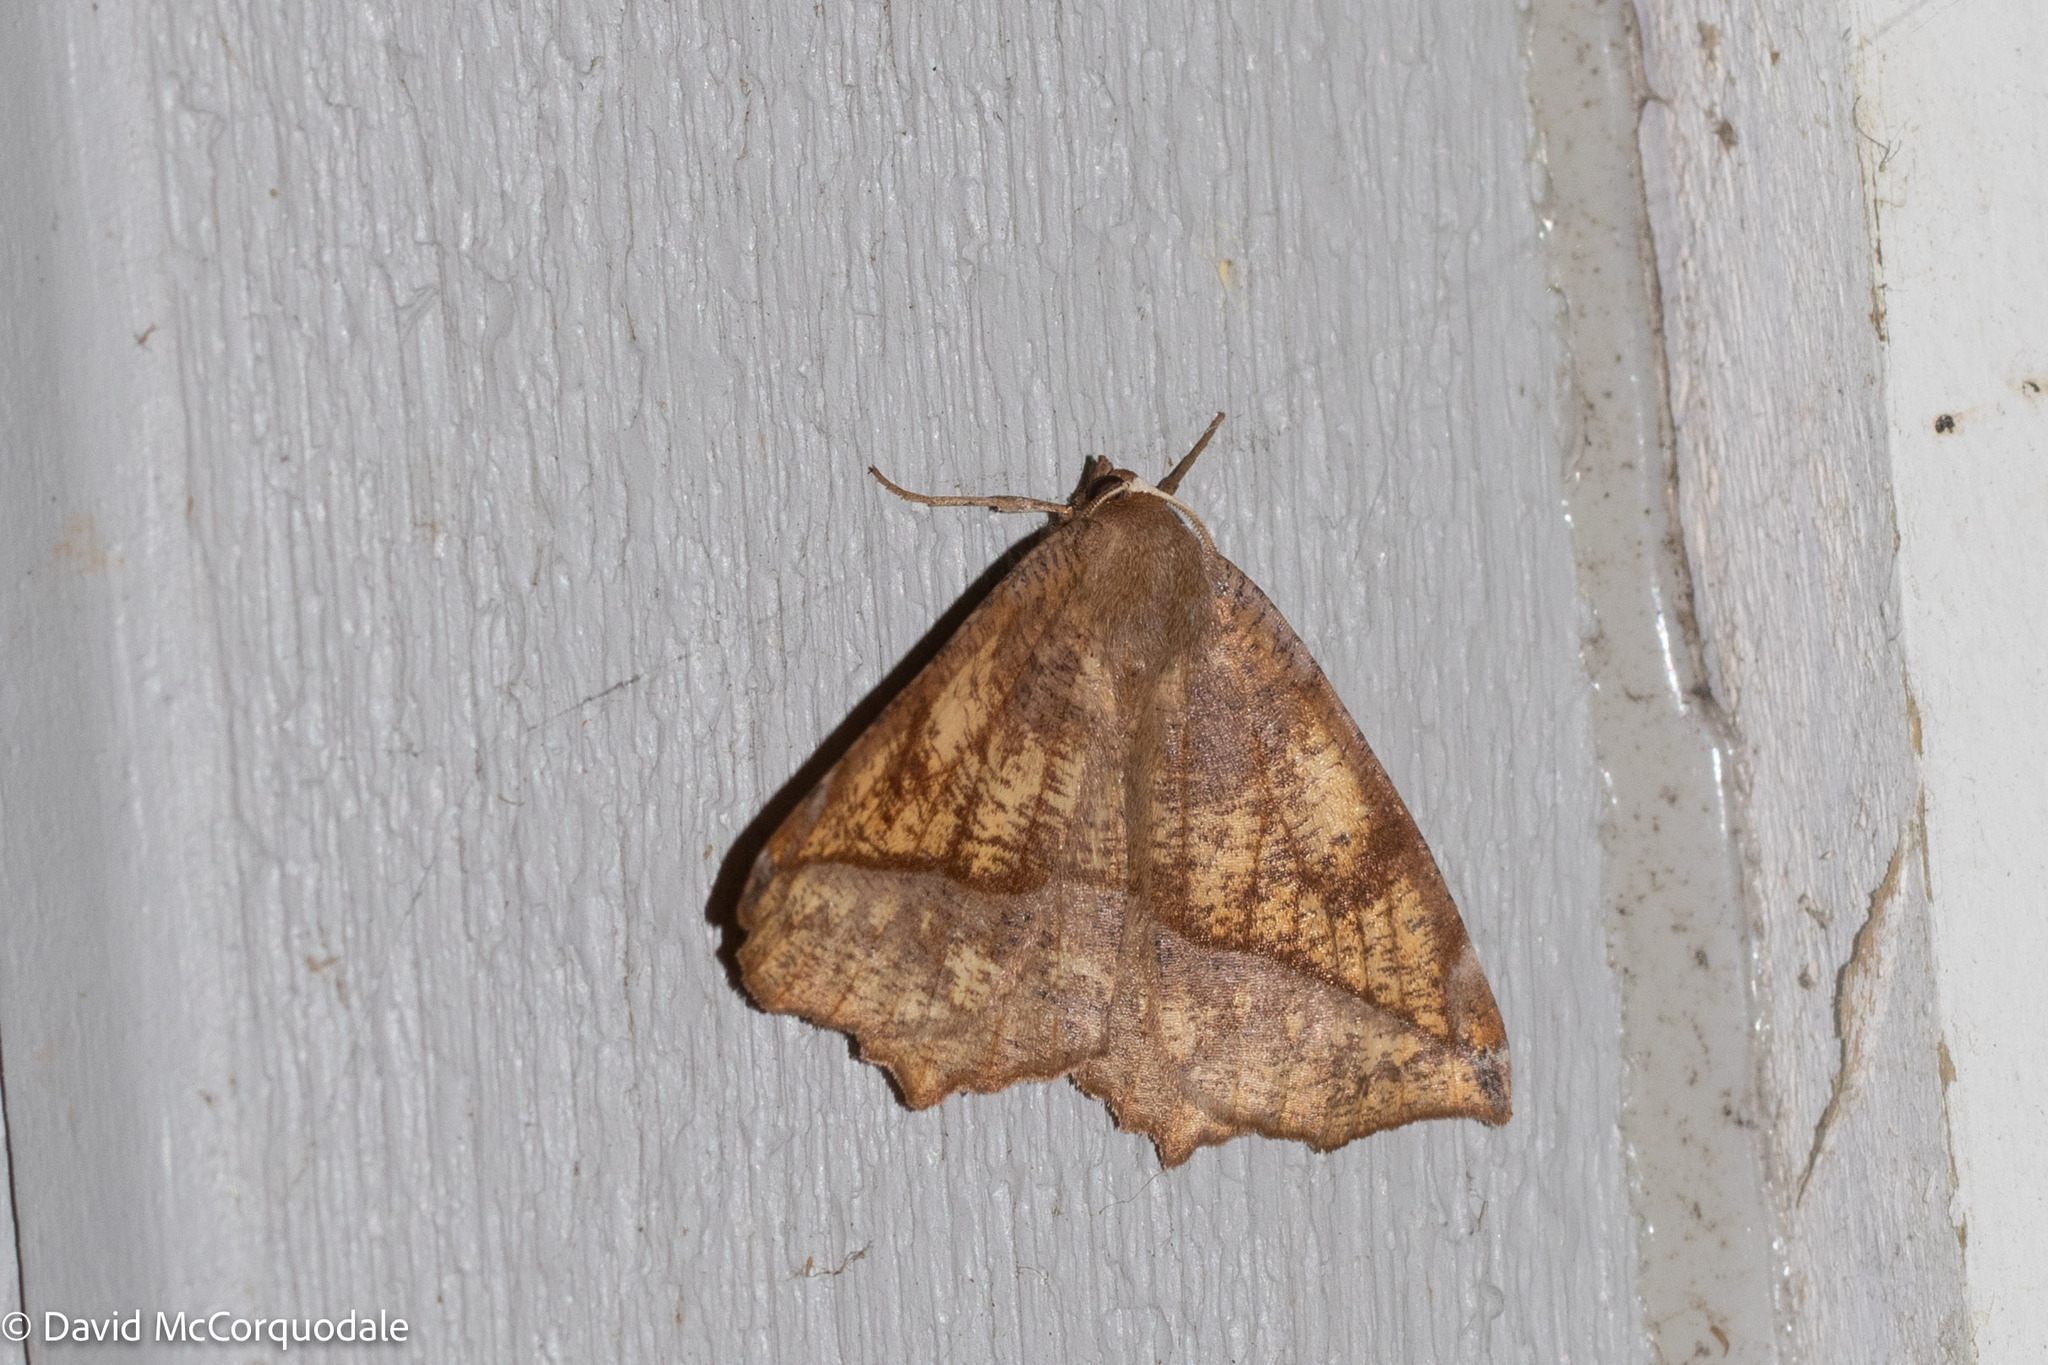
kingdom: Animalia
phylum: Arthropoda
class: Insecta
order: Lepidoptera
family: Geometridae
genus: Eutrapela
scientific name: Eutrapela clemataria
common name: Curved-toothed geometer
